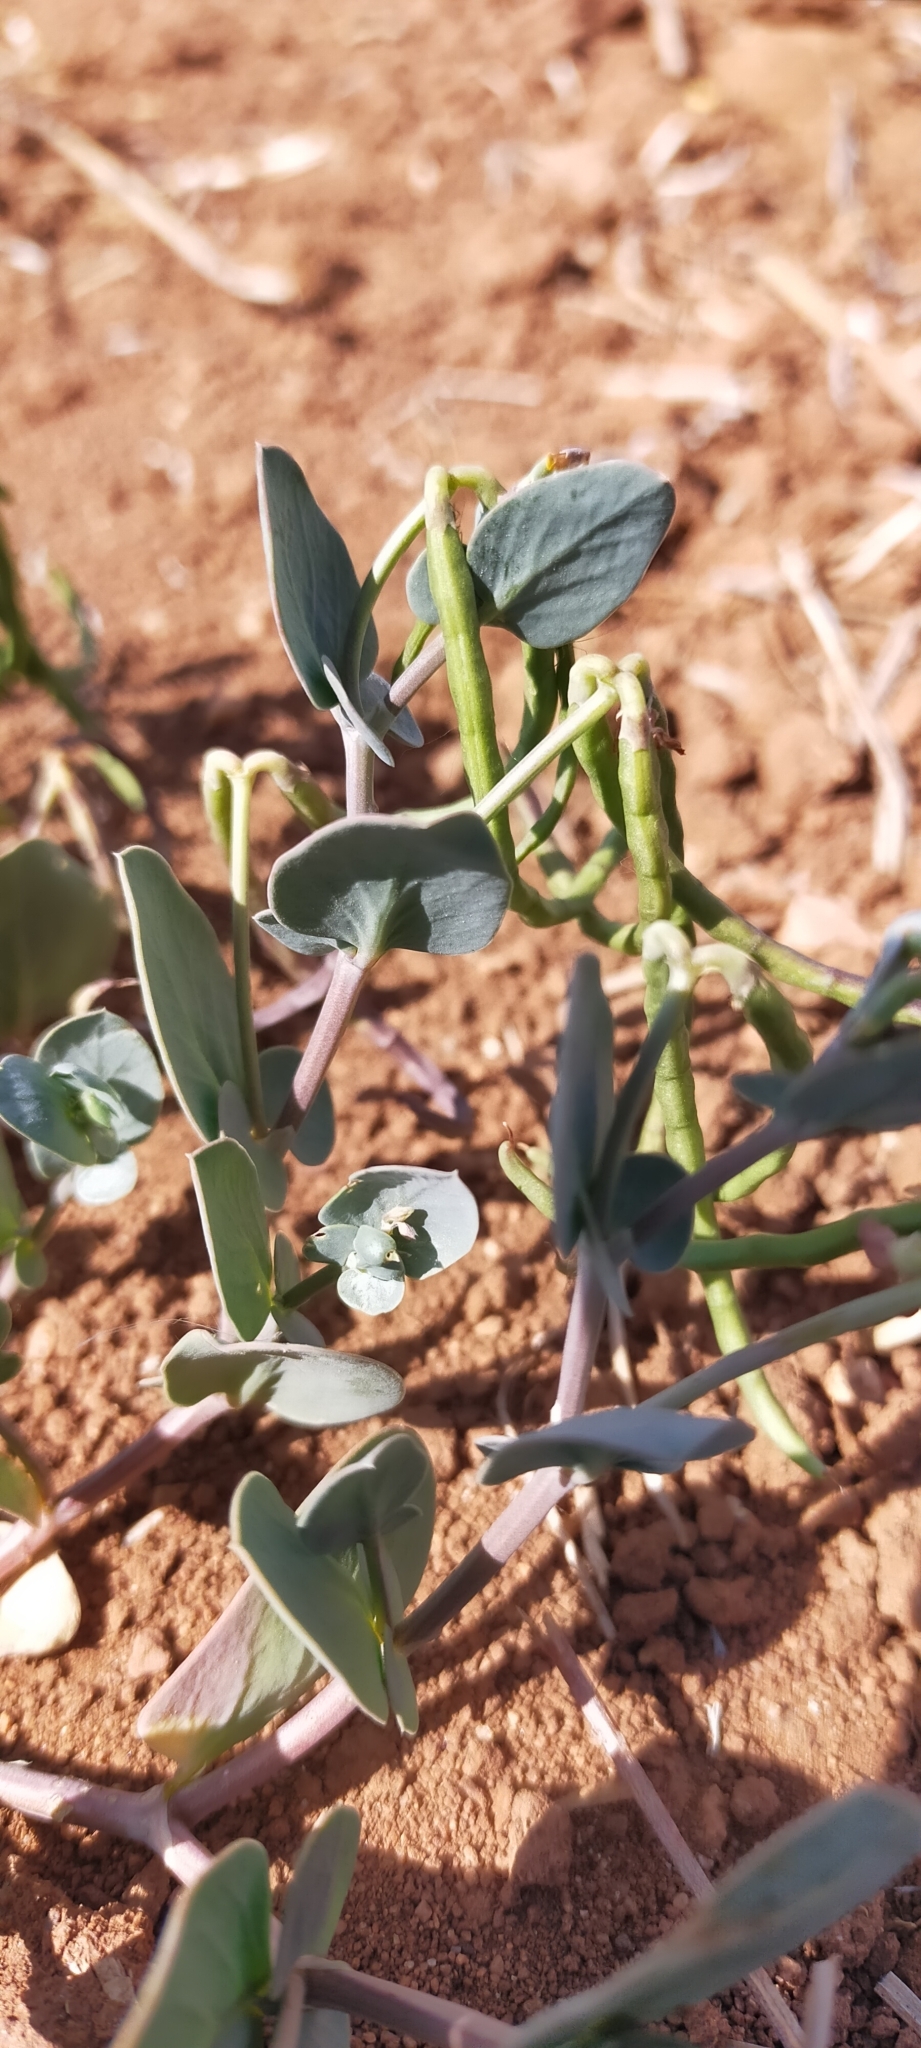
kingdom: Plantae
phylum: Tracheophyta
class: Magnoliopsida
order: Fabales
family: Fabaceae
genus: Coronilla
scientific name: Coronilla scorpioides
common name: Annual scorpion-vetch
